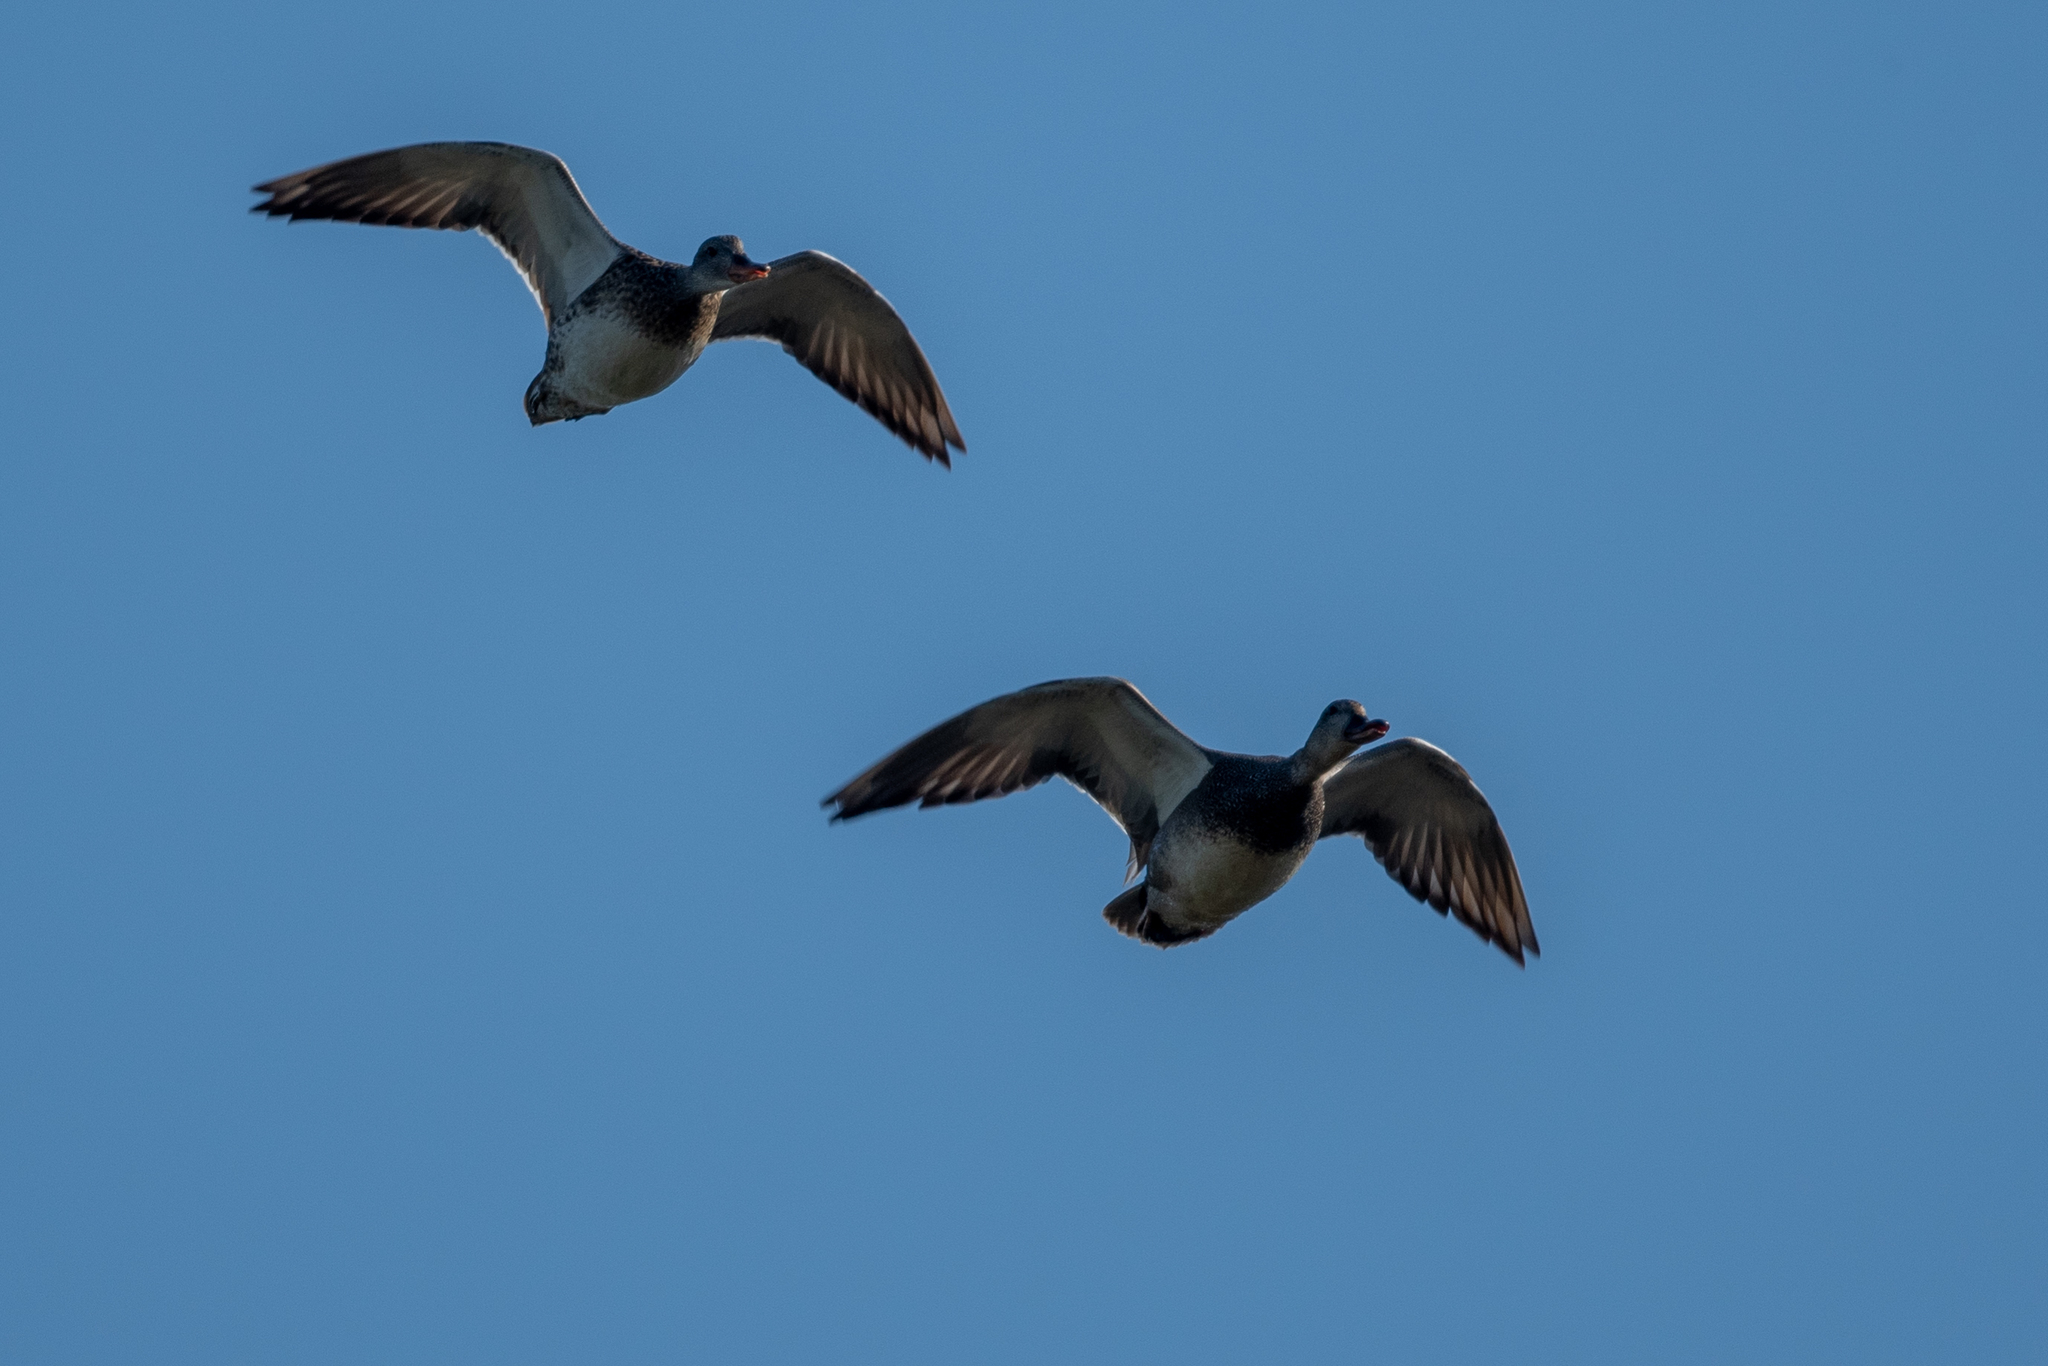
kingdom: Animalia
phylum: Chordata
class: Aves
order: Anseriformes
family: Anatidae
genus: Mareca
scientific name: Mareca strepera
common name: Gadwall
